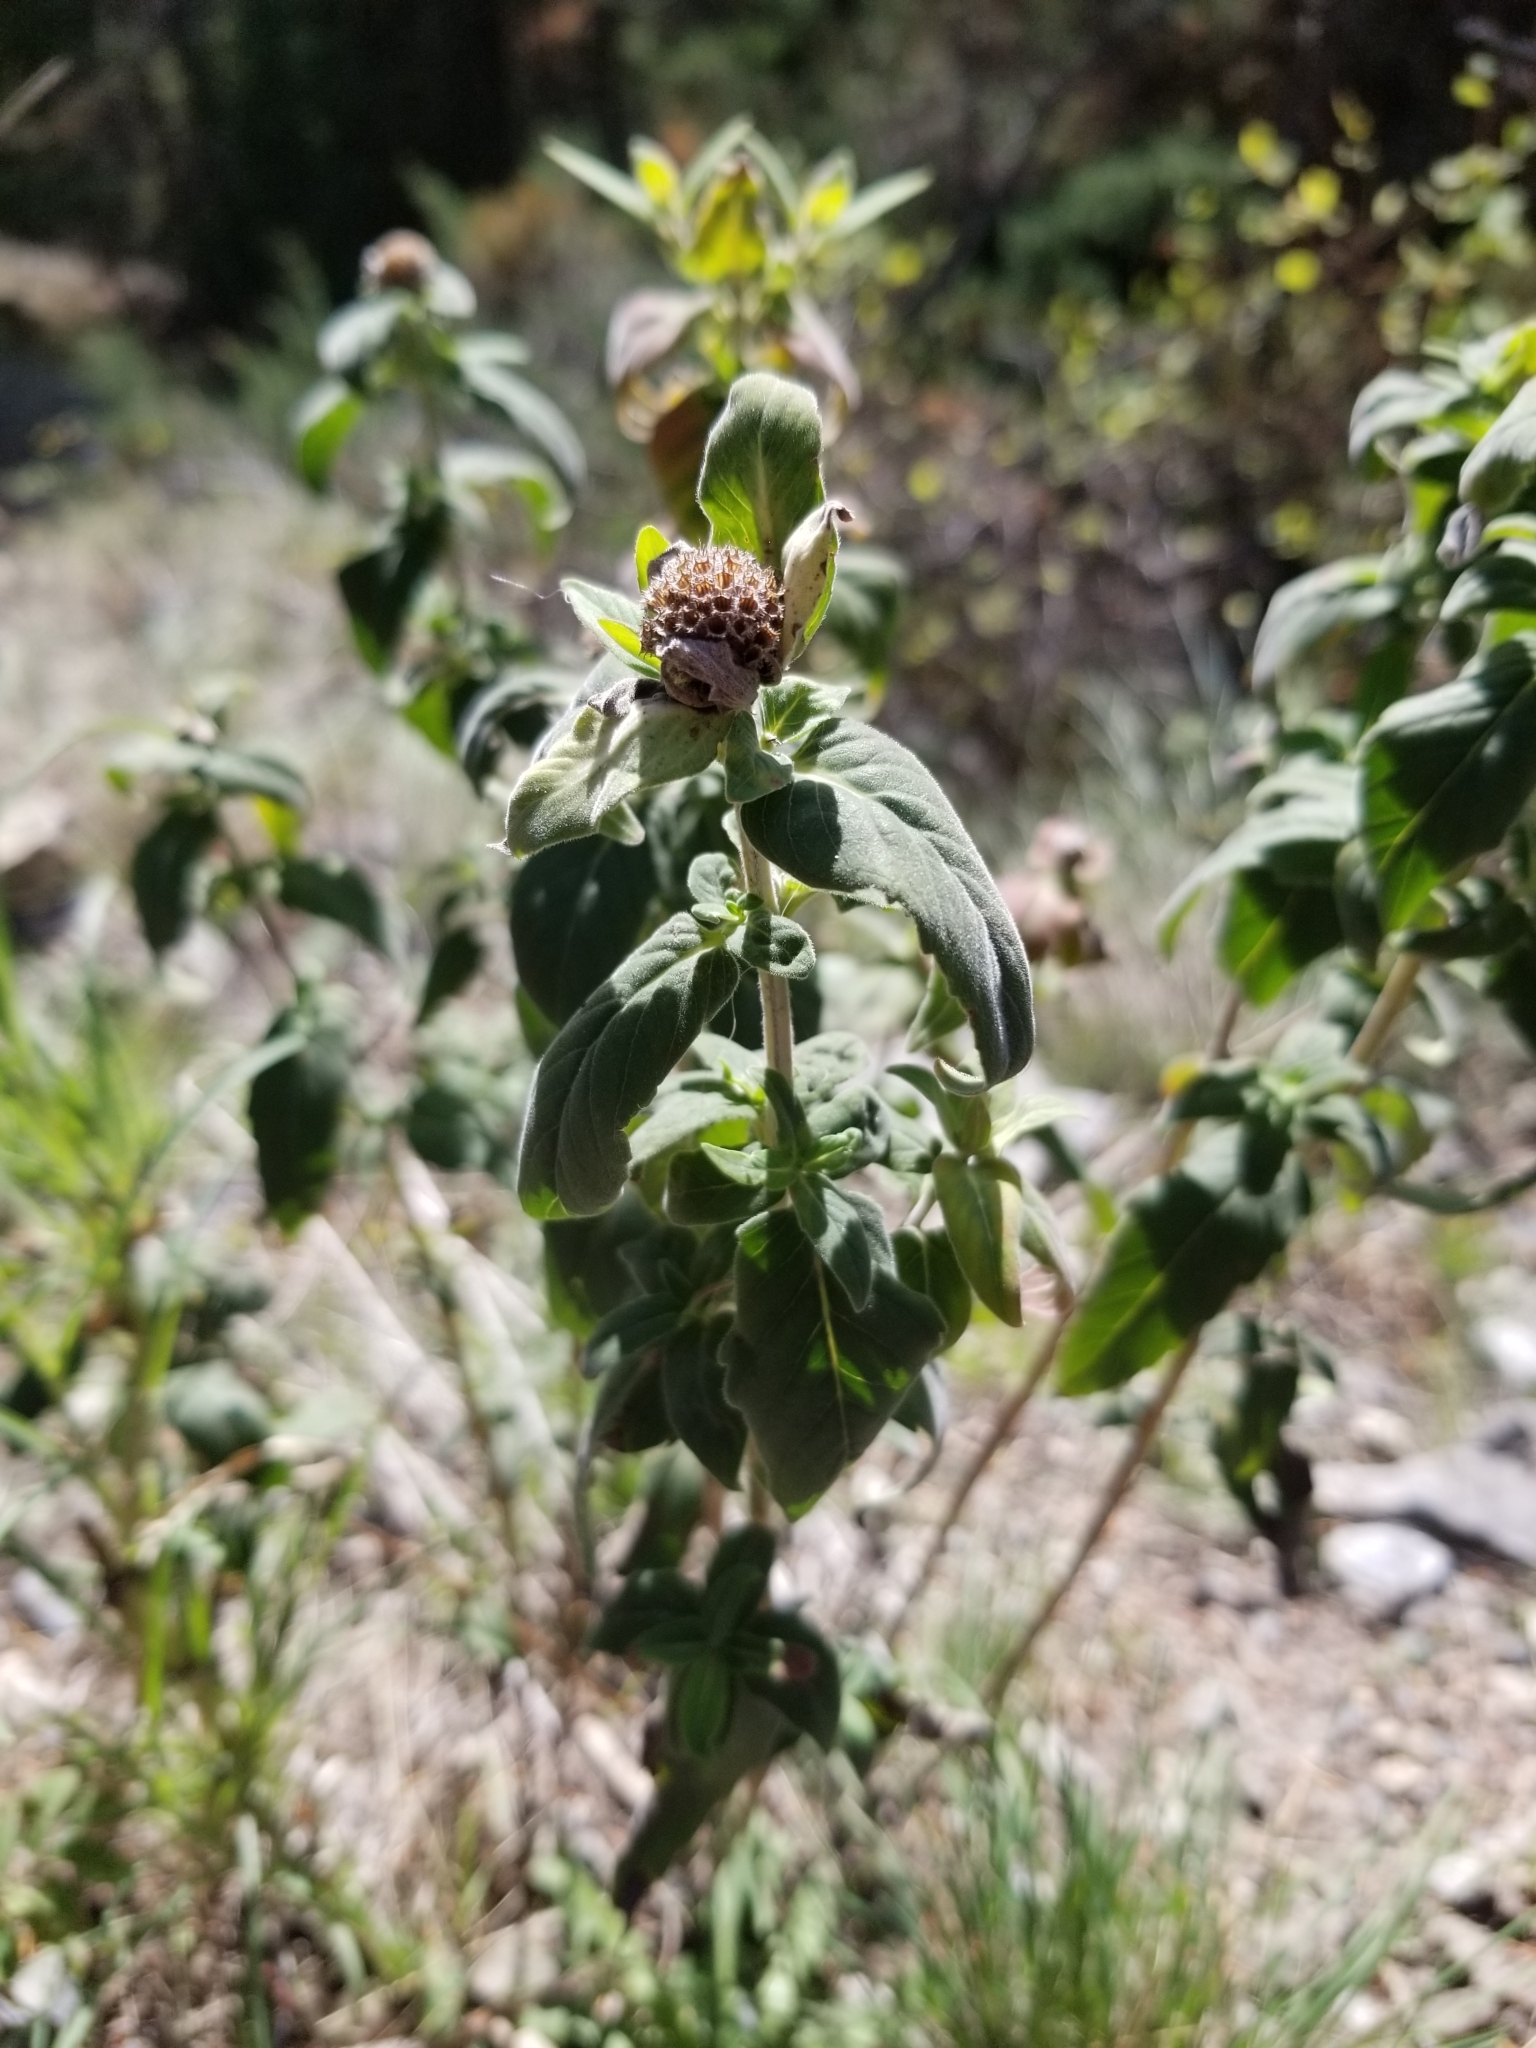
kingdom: Plantae
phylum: Tracheophyta
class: Magnoliopsida
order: Lamiales
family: Lamiaceae
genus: Monarda
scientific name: Monarda fistulosa
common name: Purple beebalm
